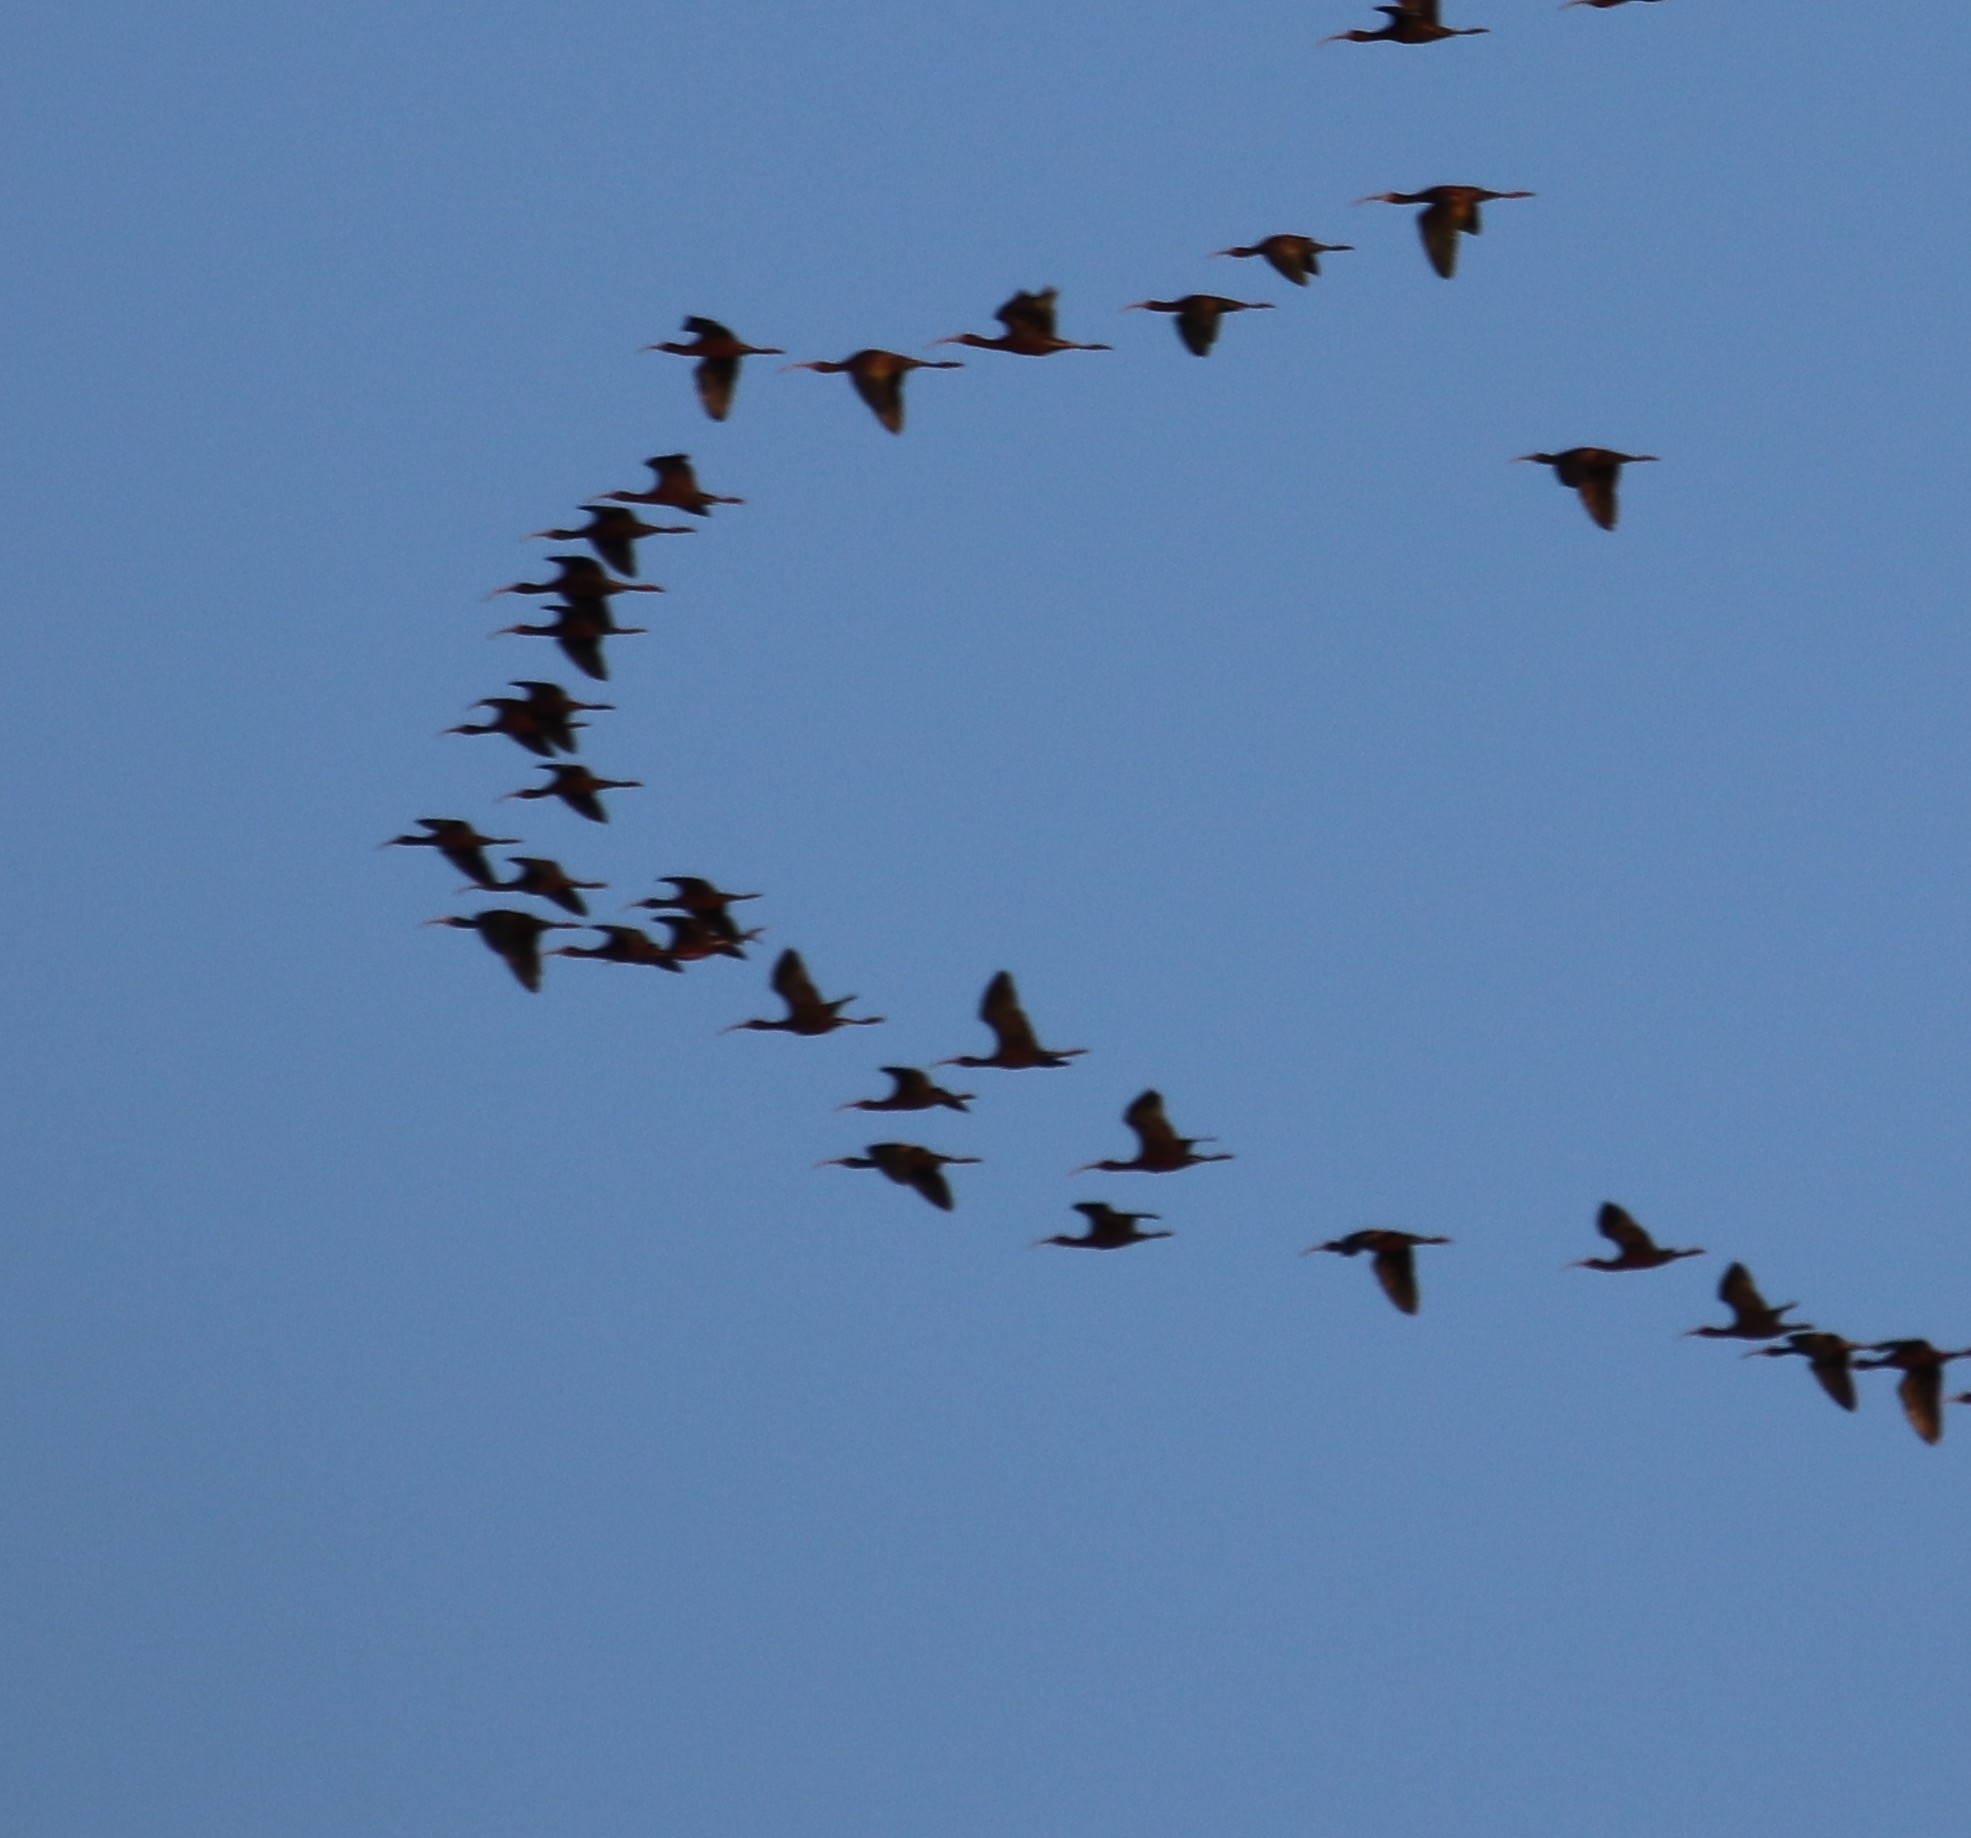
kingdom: Animalia
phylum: Chordata
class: Aves
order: Pelecaniformes
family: Threskiornithidae
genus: Plegadis
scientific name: Plegadis chihi
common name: White-faced ibis
